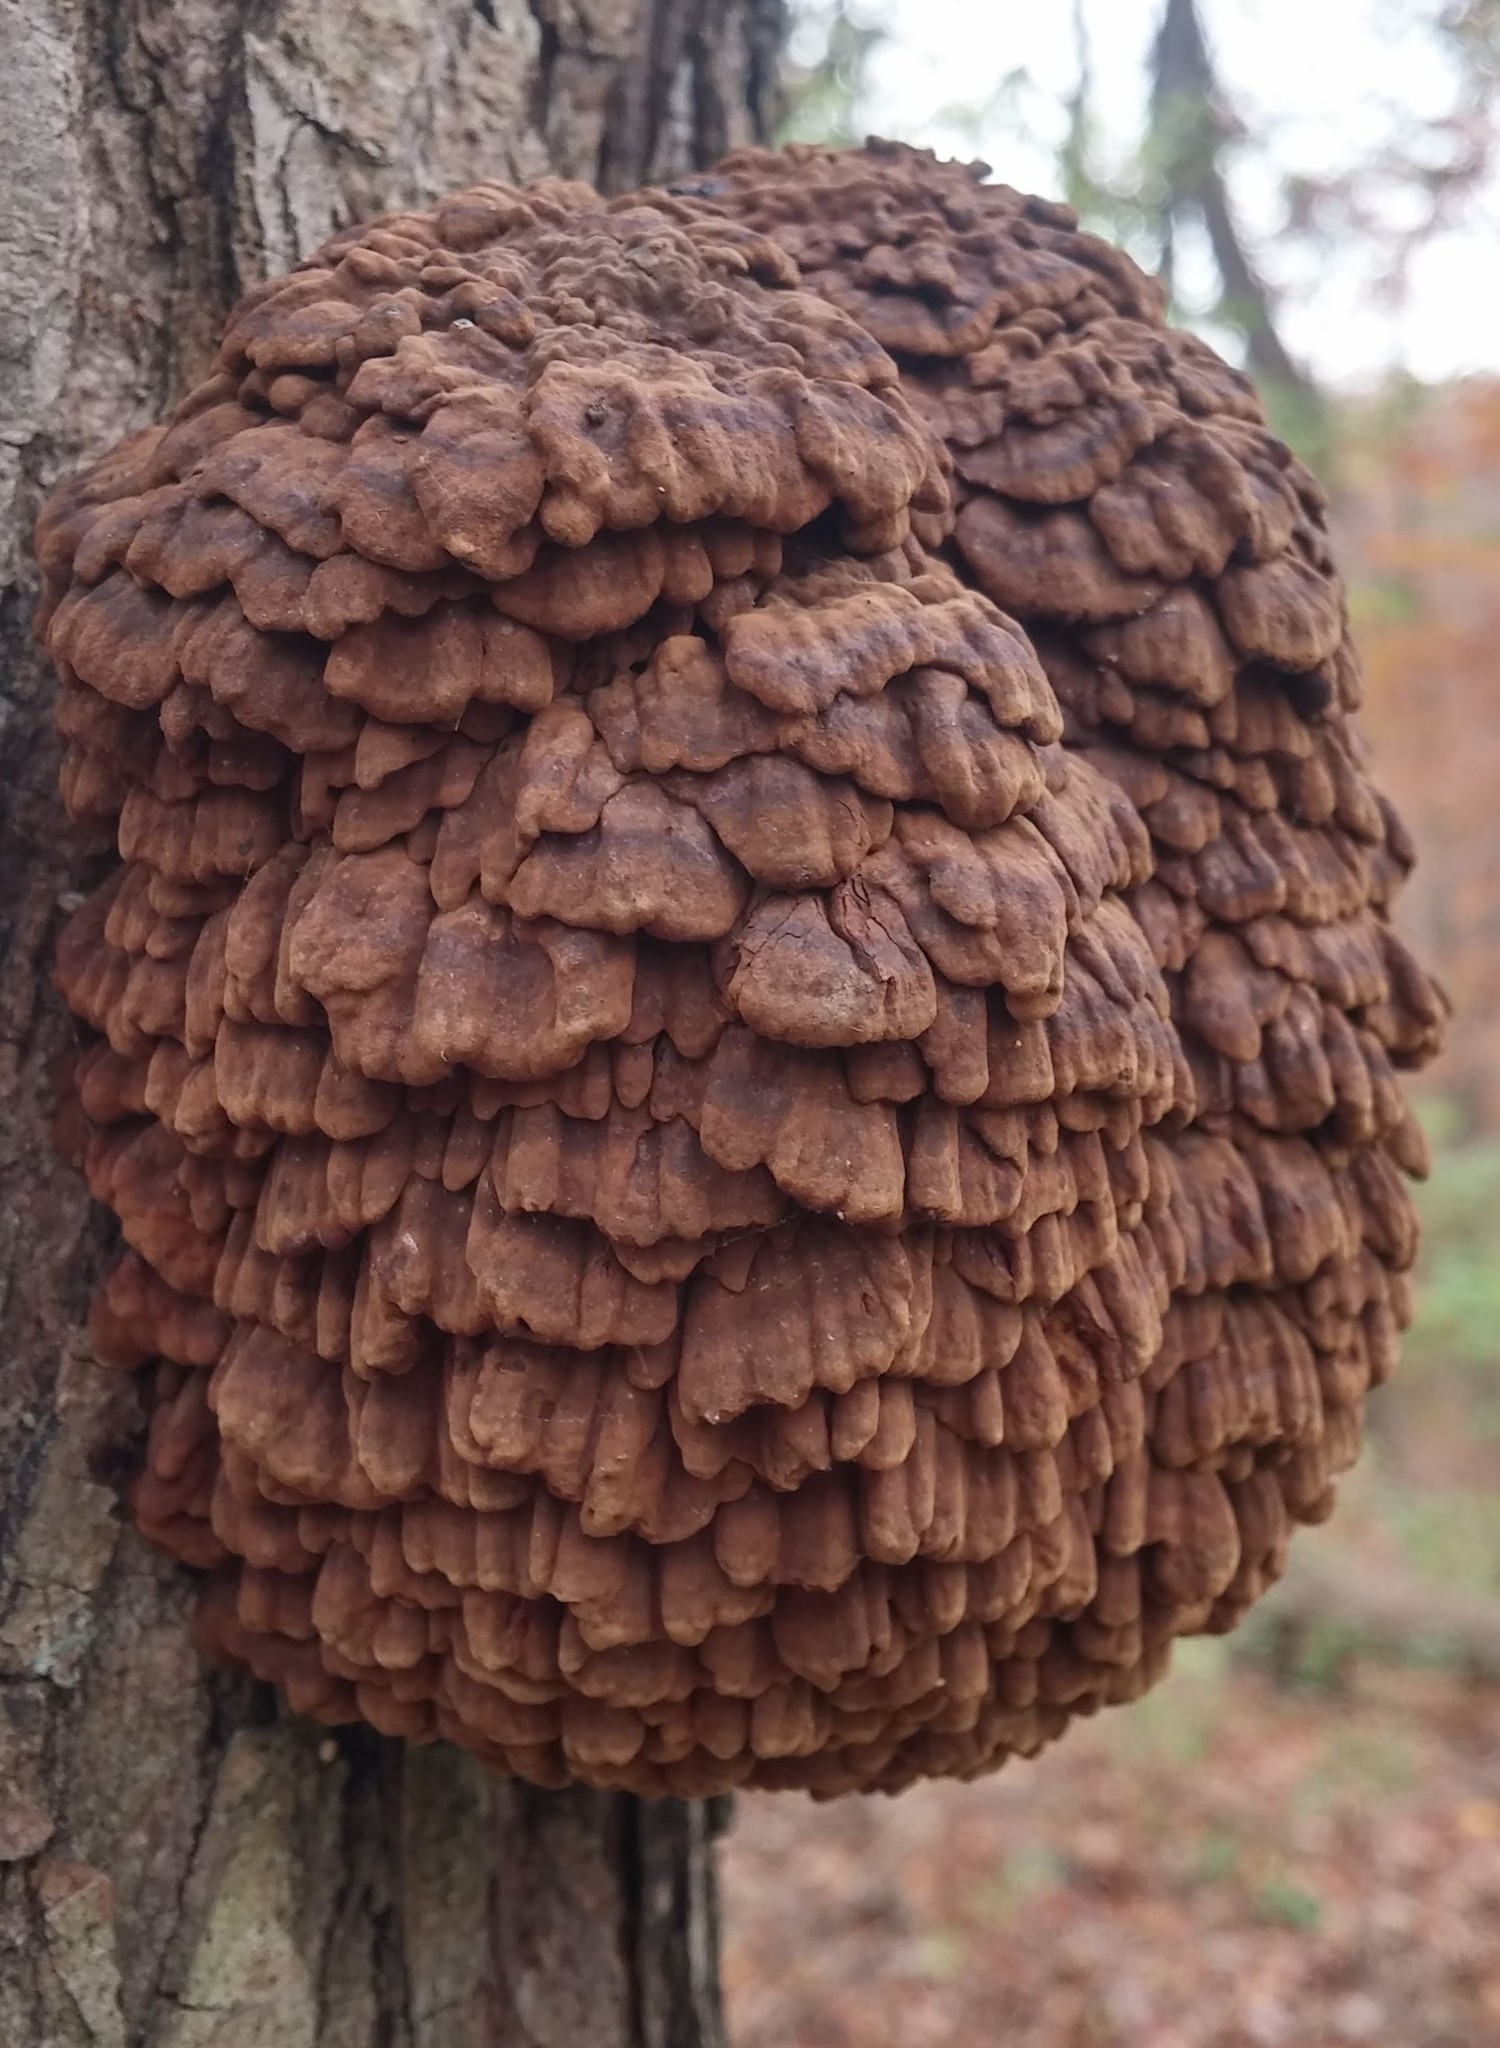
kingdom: Fungi
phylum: Basidiomycota
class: Agaricomycetes
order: Polyporales
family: Polyporaceae
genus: Globifomes
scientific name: Globifomes graveolens
